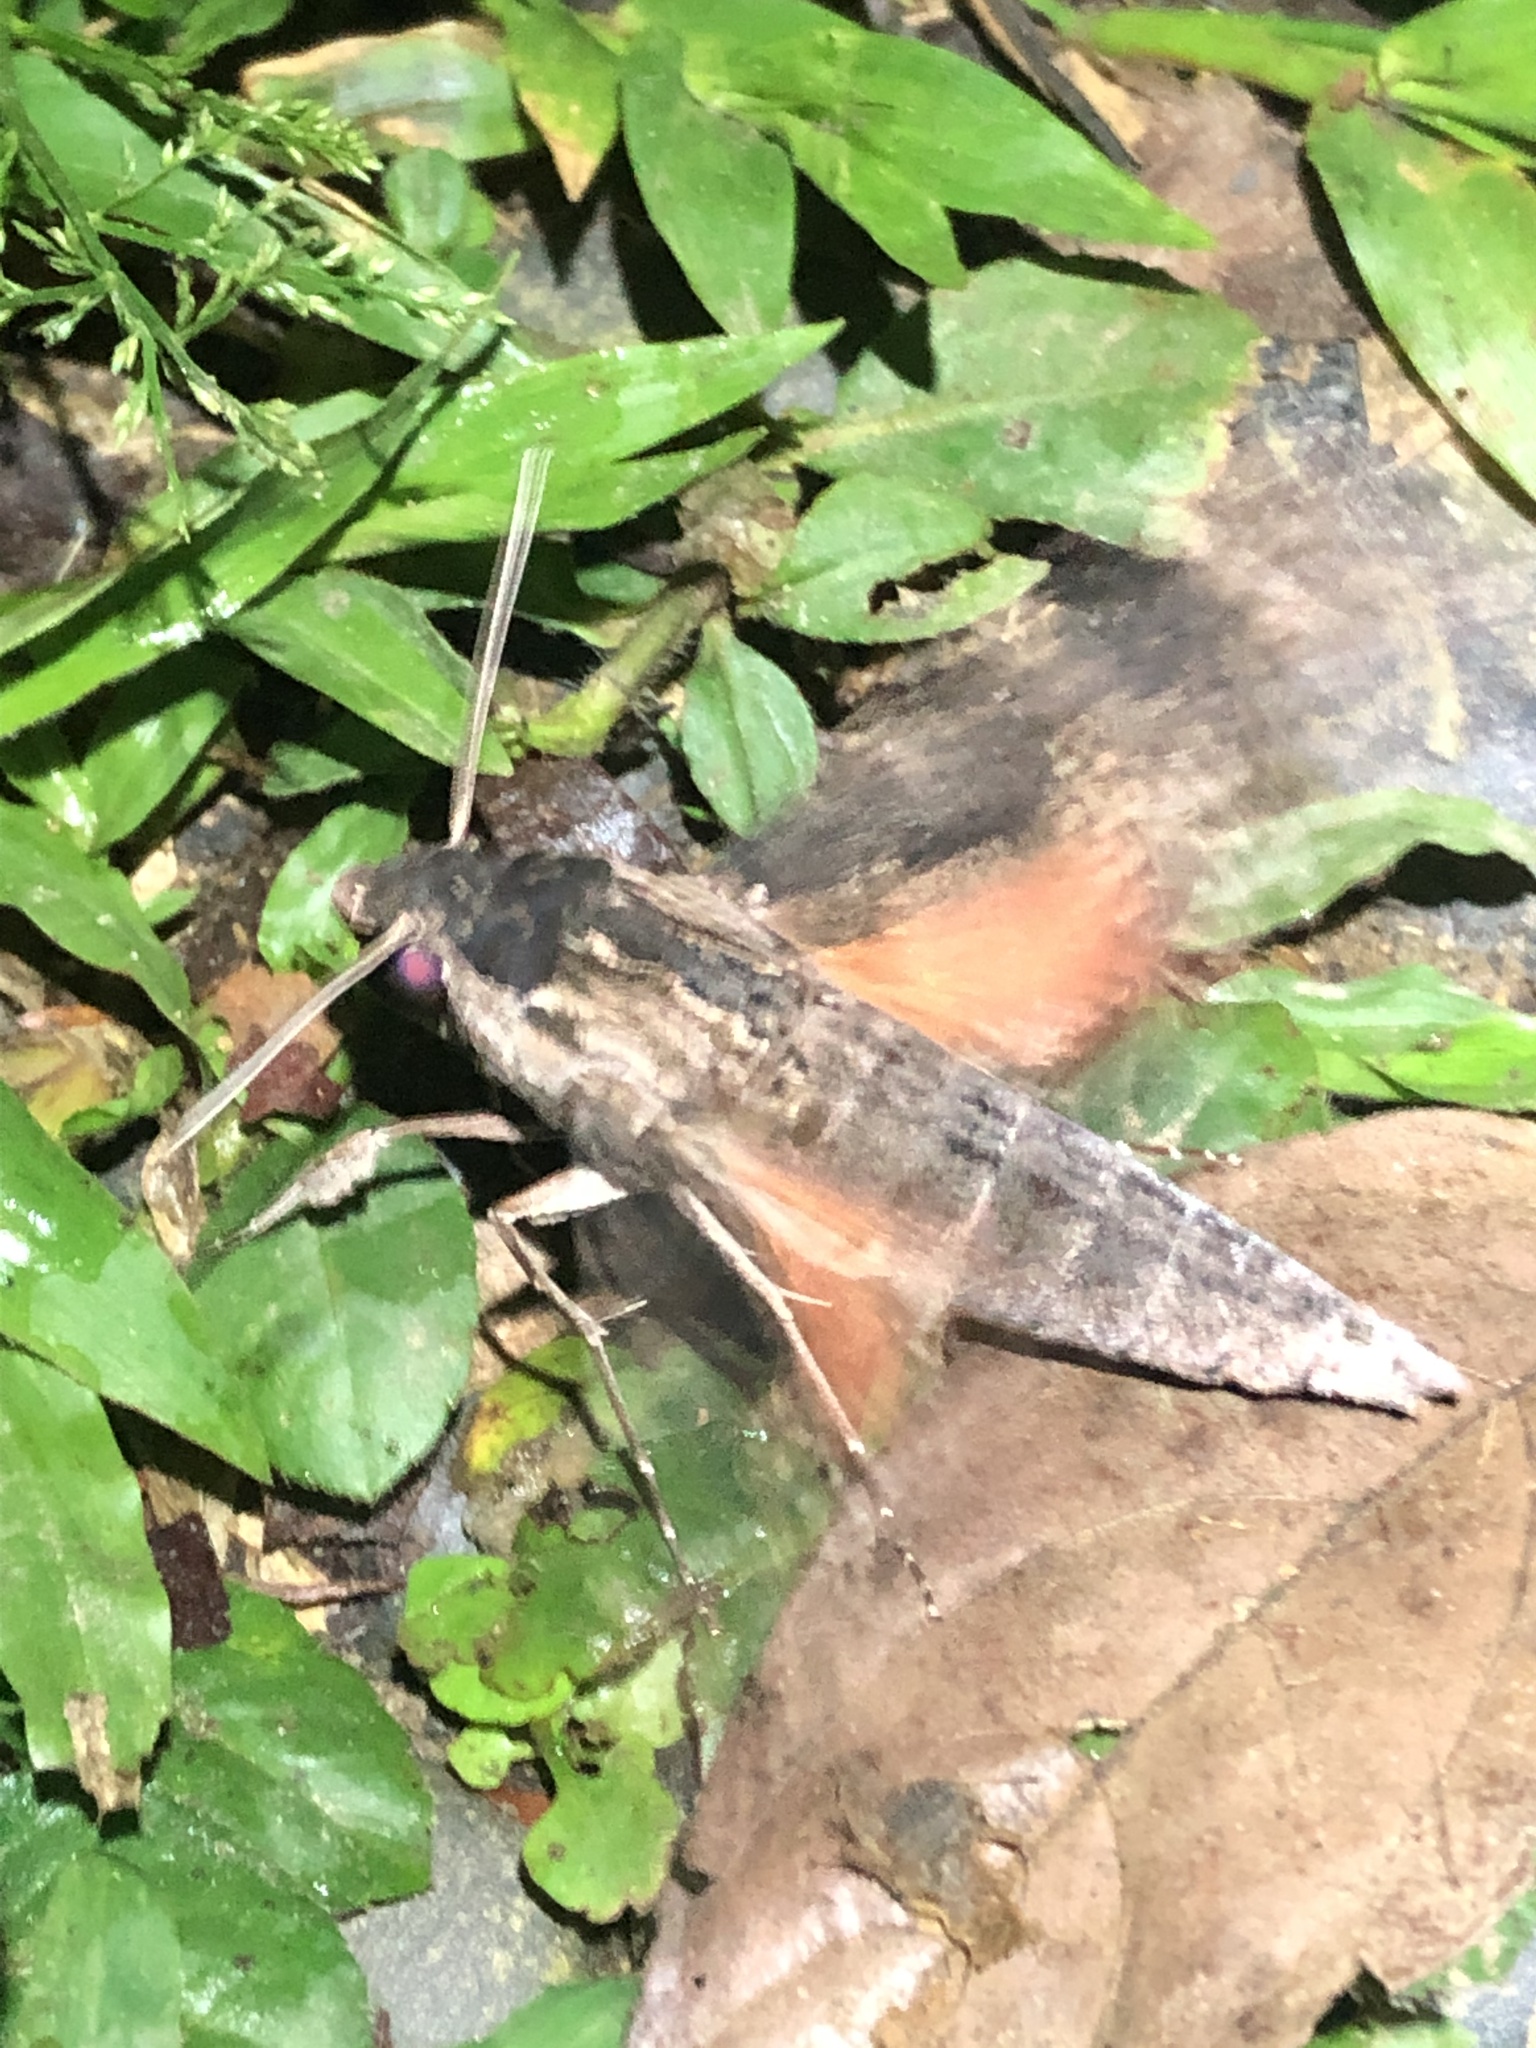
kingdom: Animalia
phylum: Arthropoda
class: Insecta
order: Lepidoptera
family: Sphingidae
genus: Erinnyis
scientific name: Erinnyis crameri
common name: Cramer's sphinx
